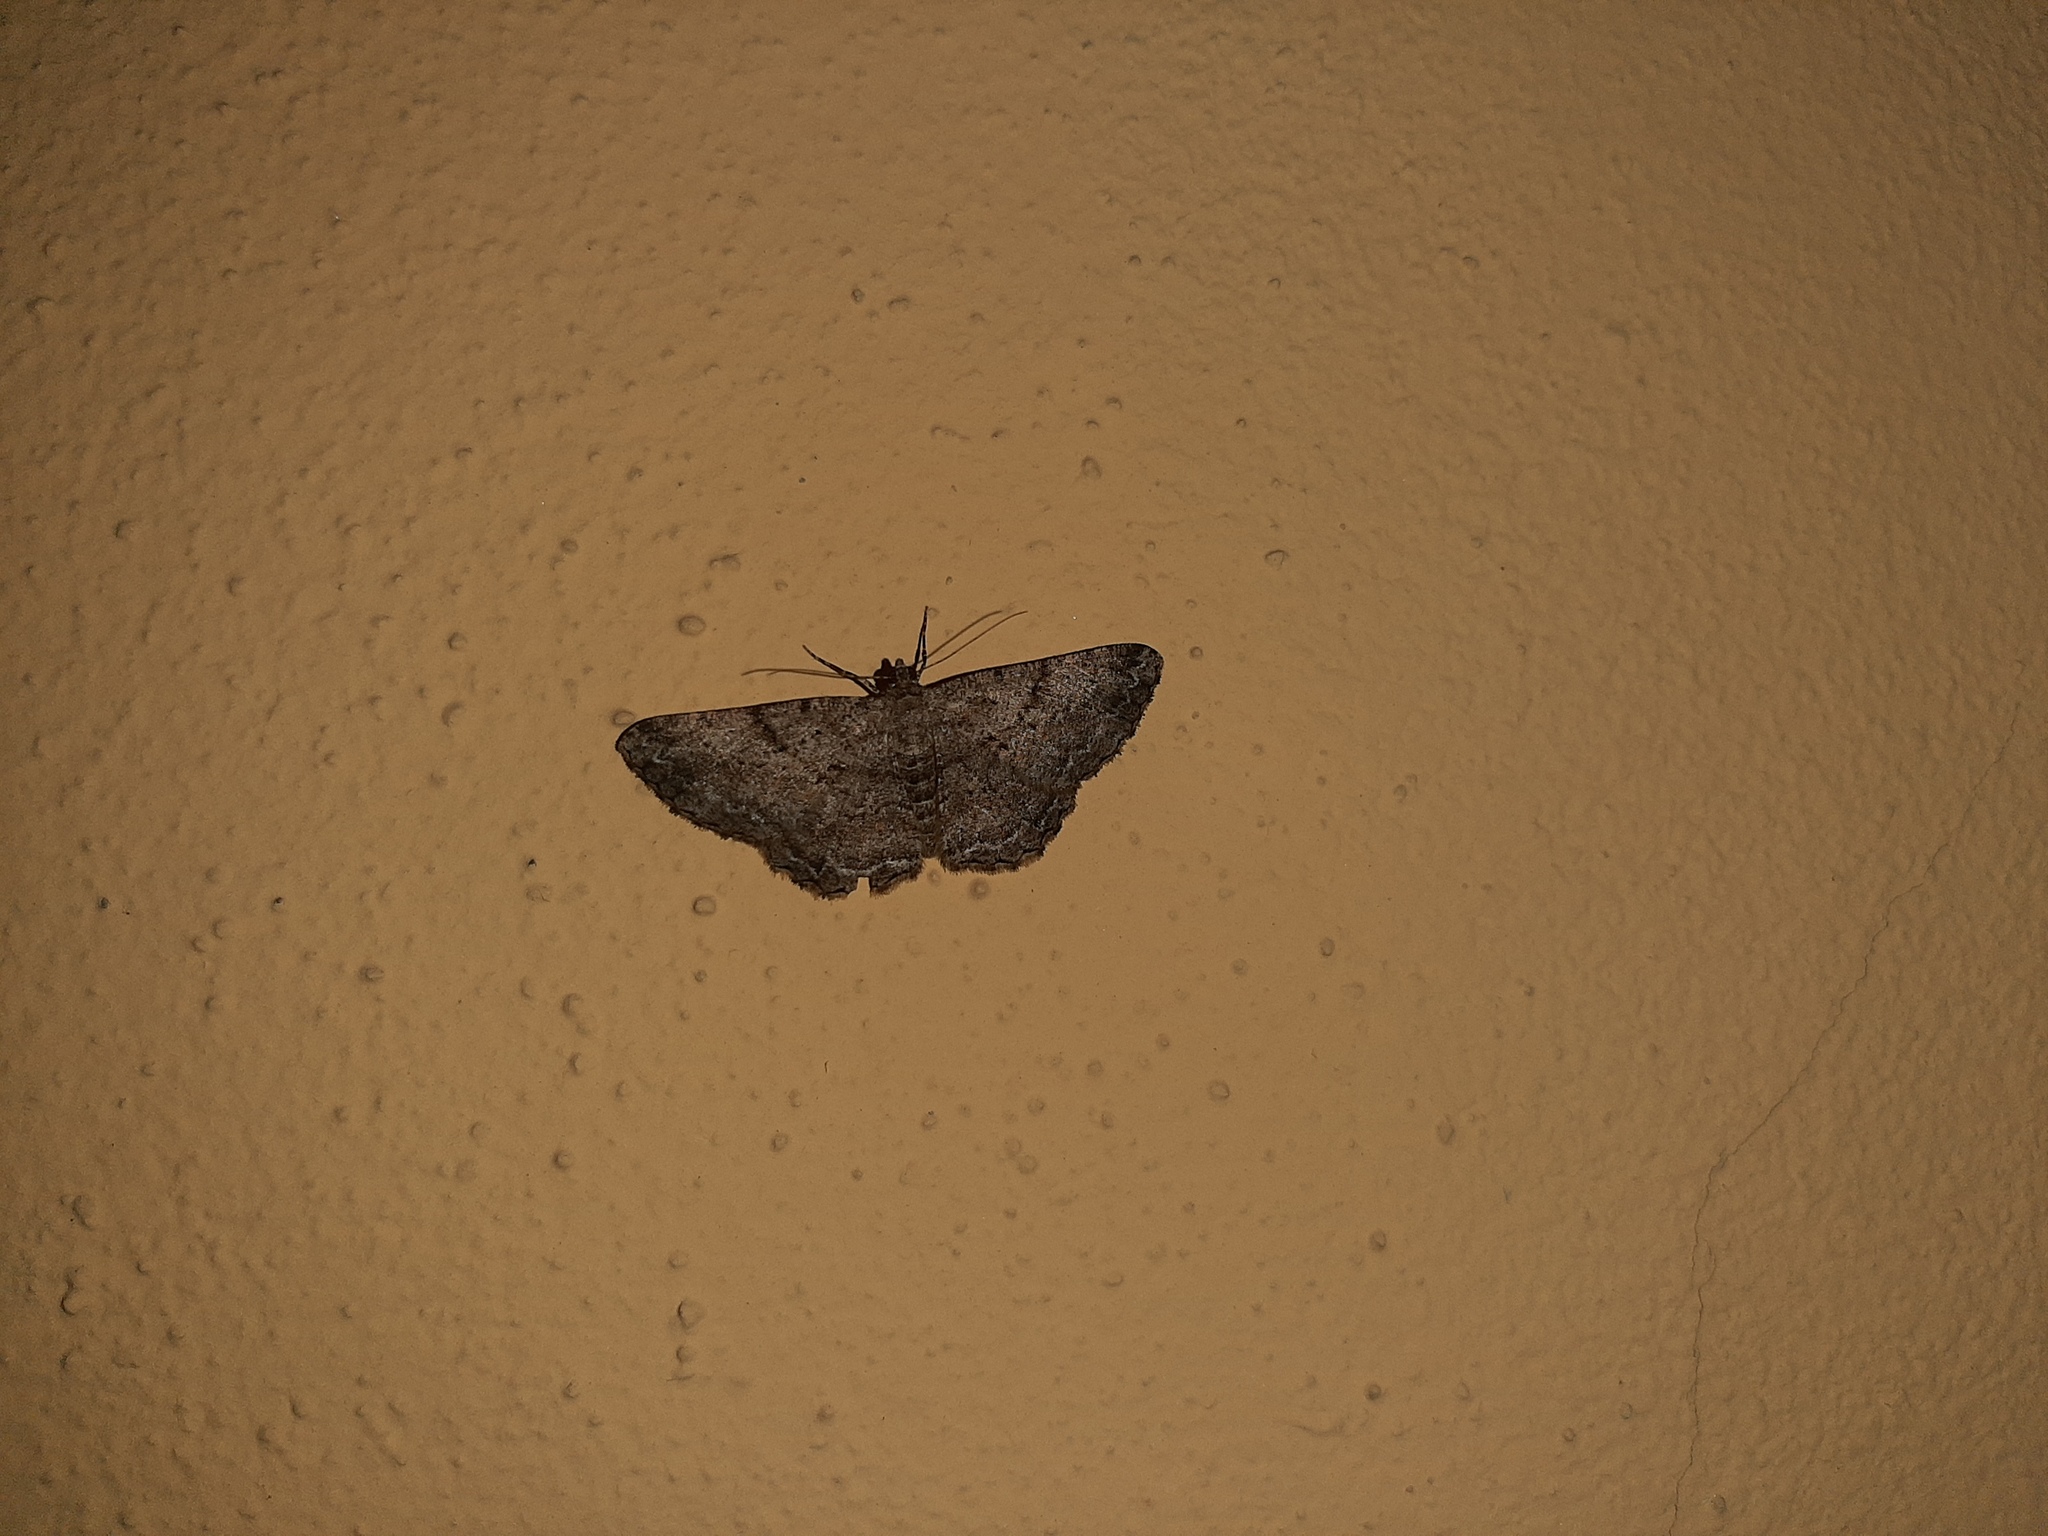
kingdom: Animalia
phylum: Arthropoda
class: Insecta
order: Lepidoptera
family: Geometridae
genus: Peribatodes
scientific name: Peribatodes rhomboidaria
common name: Willow beauty
